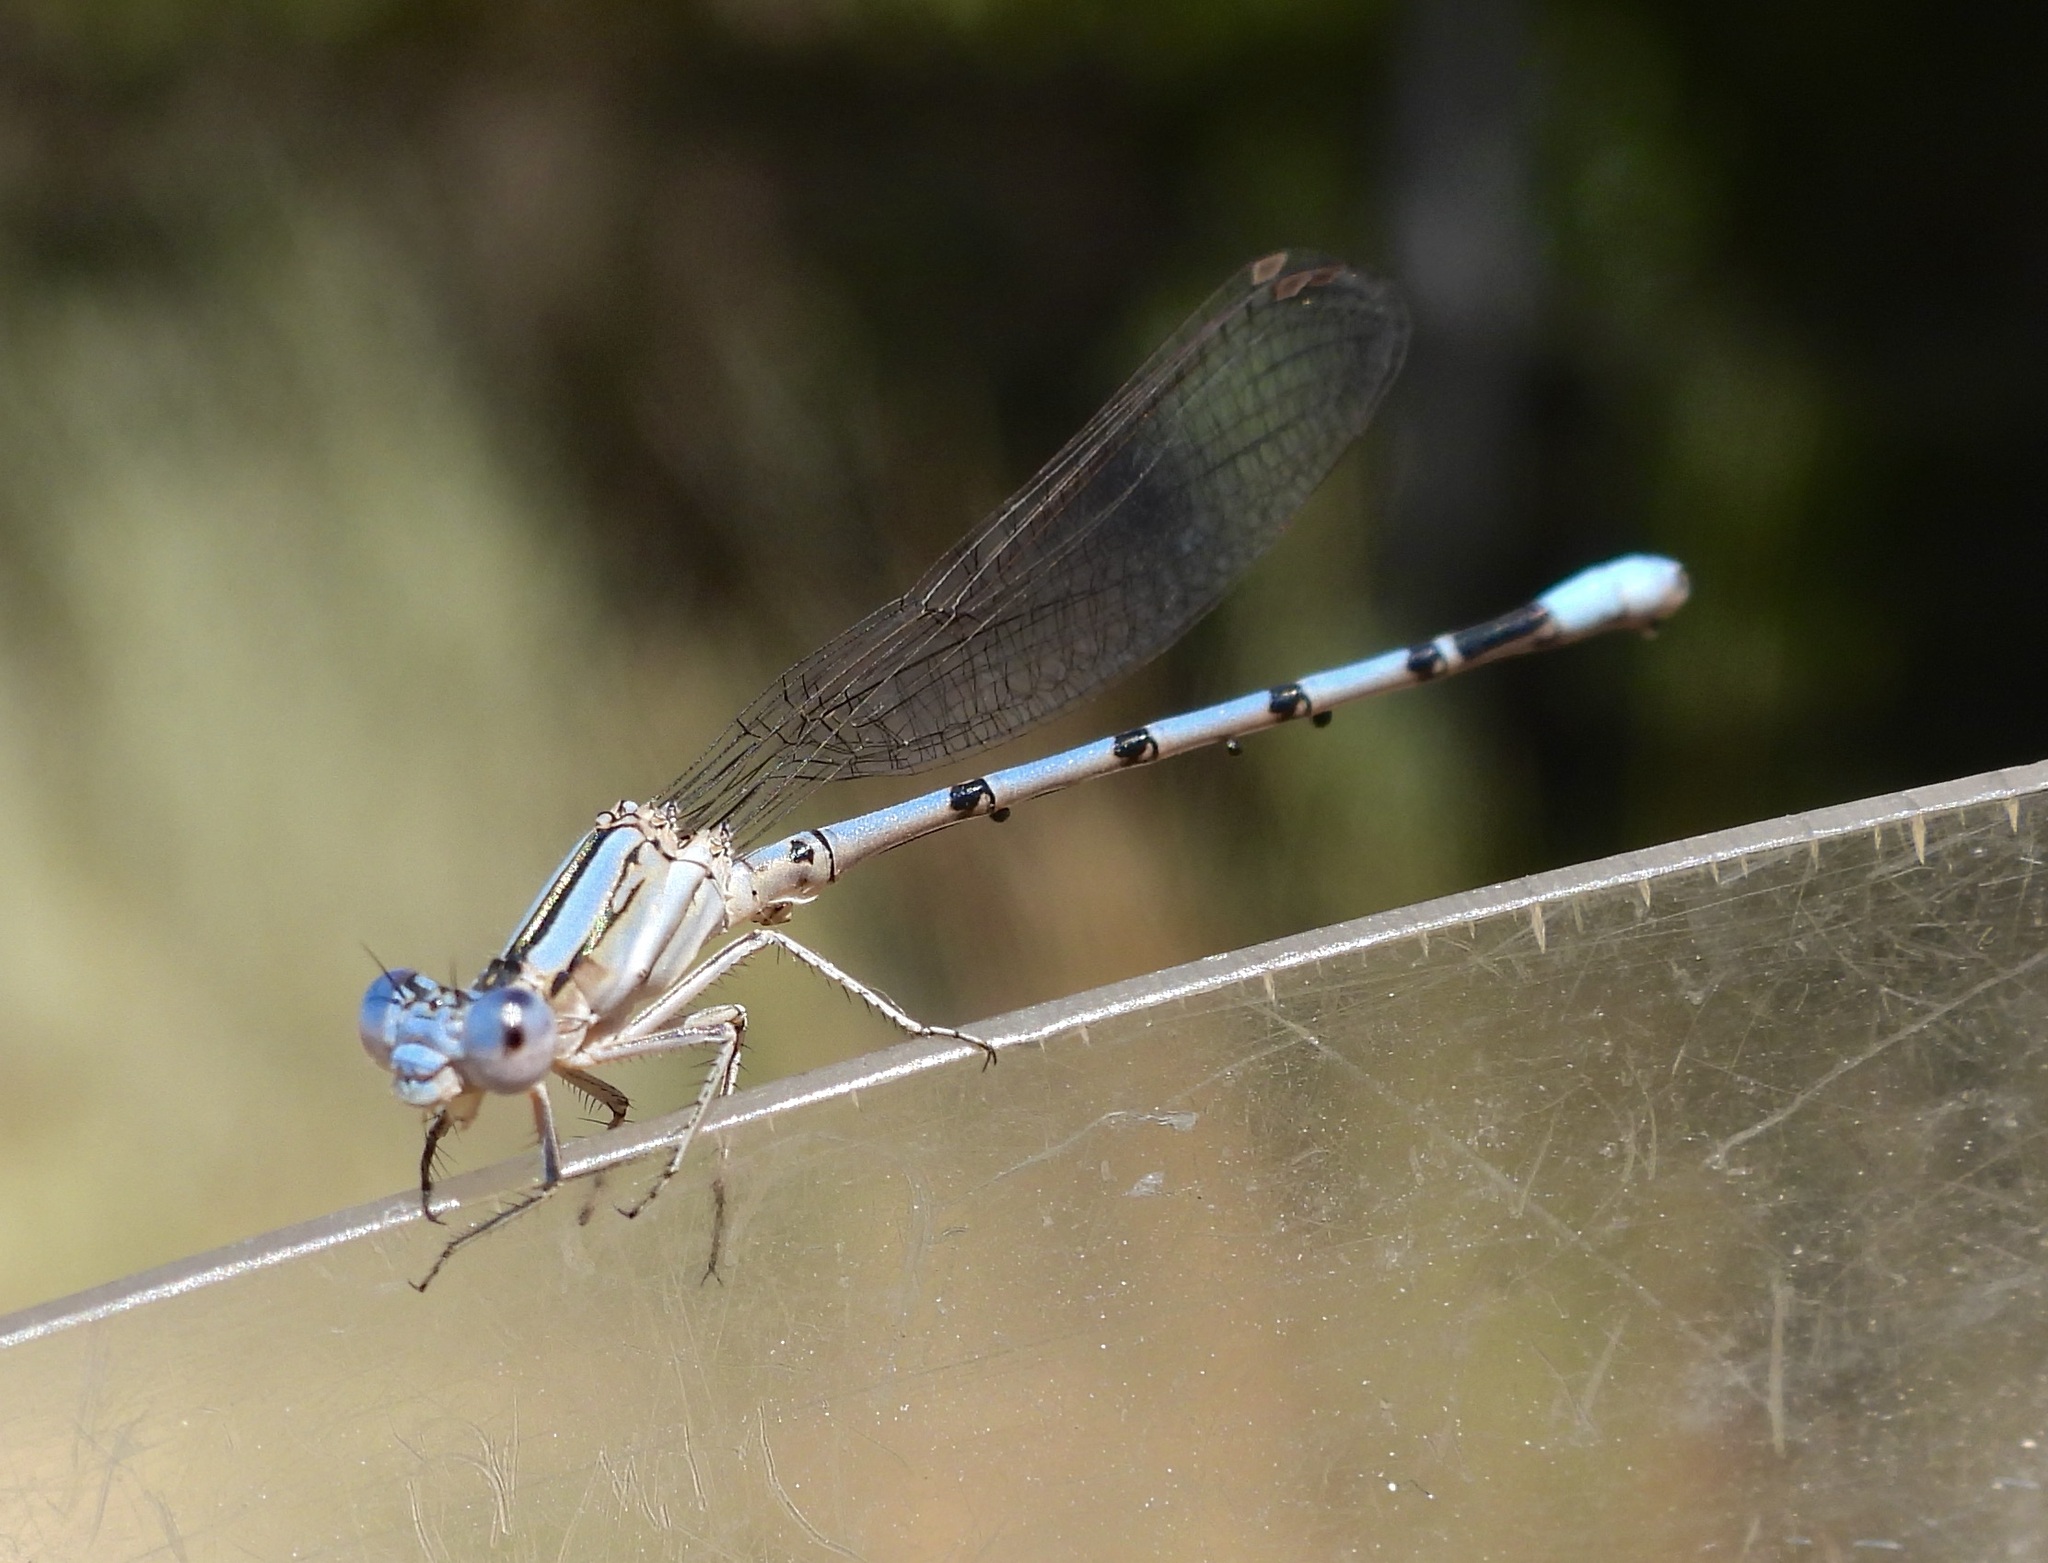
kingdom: Animalia
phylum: Arthropoda
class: Insecta
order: Odonata
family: Coenagrionidae
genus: Argia
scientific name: Argia nahuana
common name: Aztec dancer
